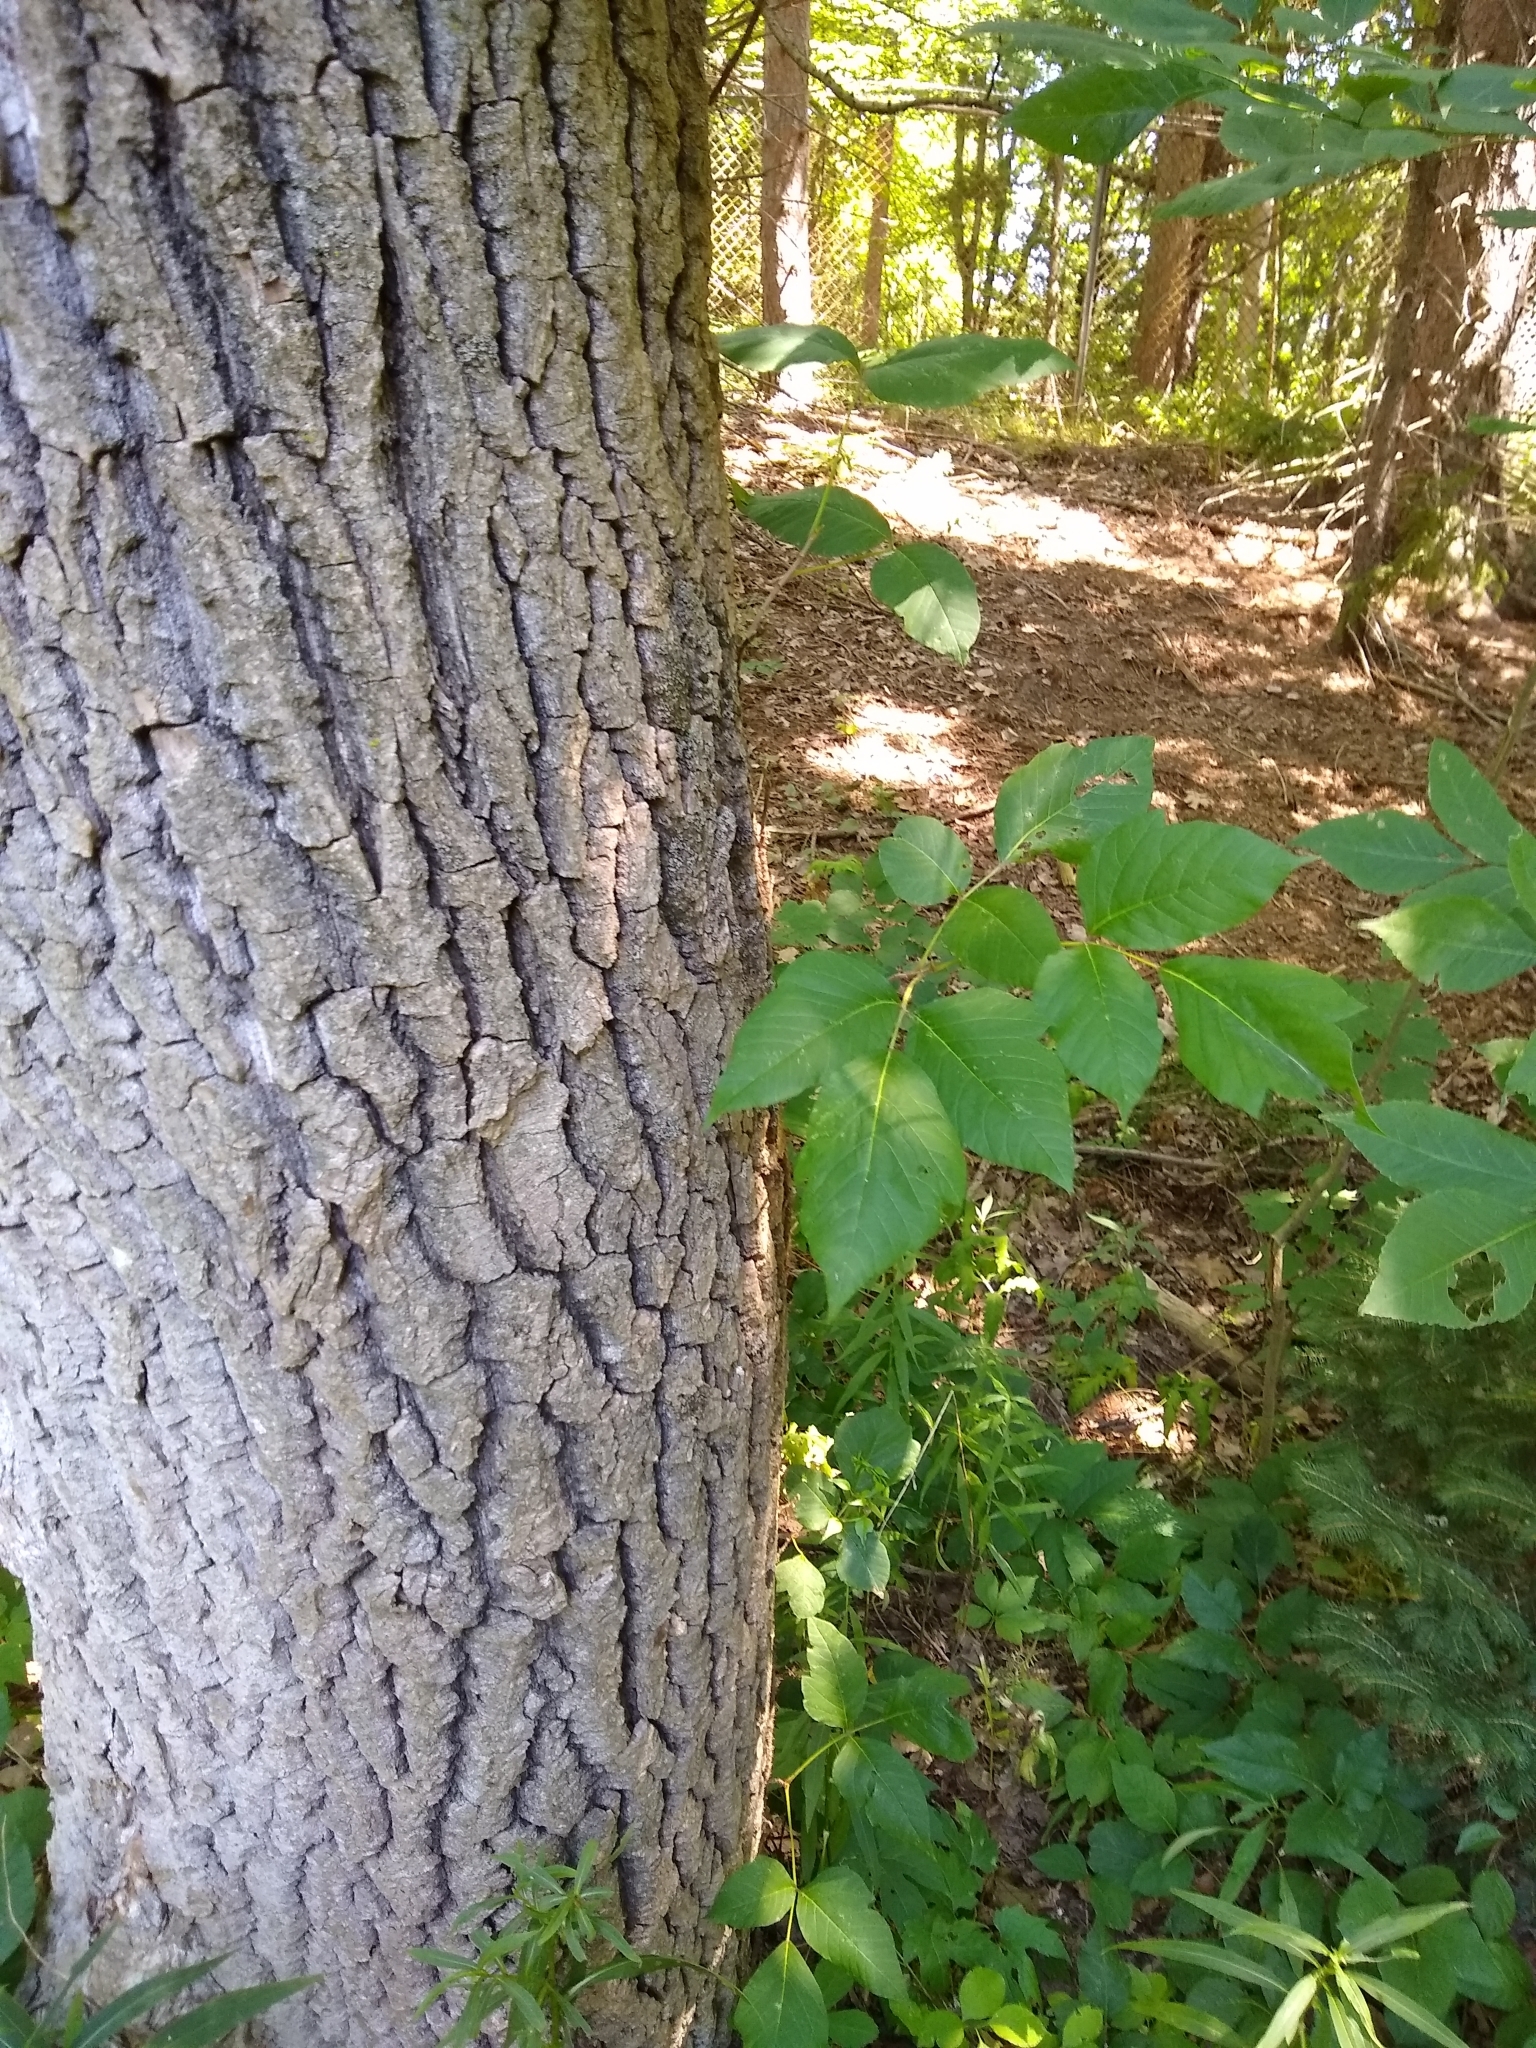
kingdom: Plantae
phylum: Tracheophyta
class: Magnoliopsida
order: Sapindales
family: Anacardiaceae
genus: Toxicodendron
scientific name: Toxicodendron radicans
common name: Poison ivy
